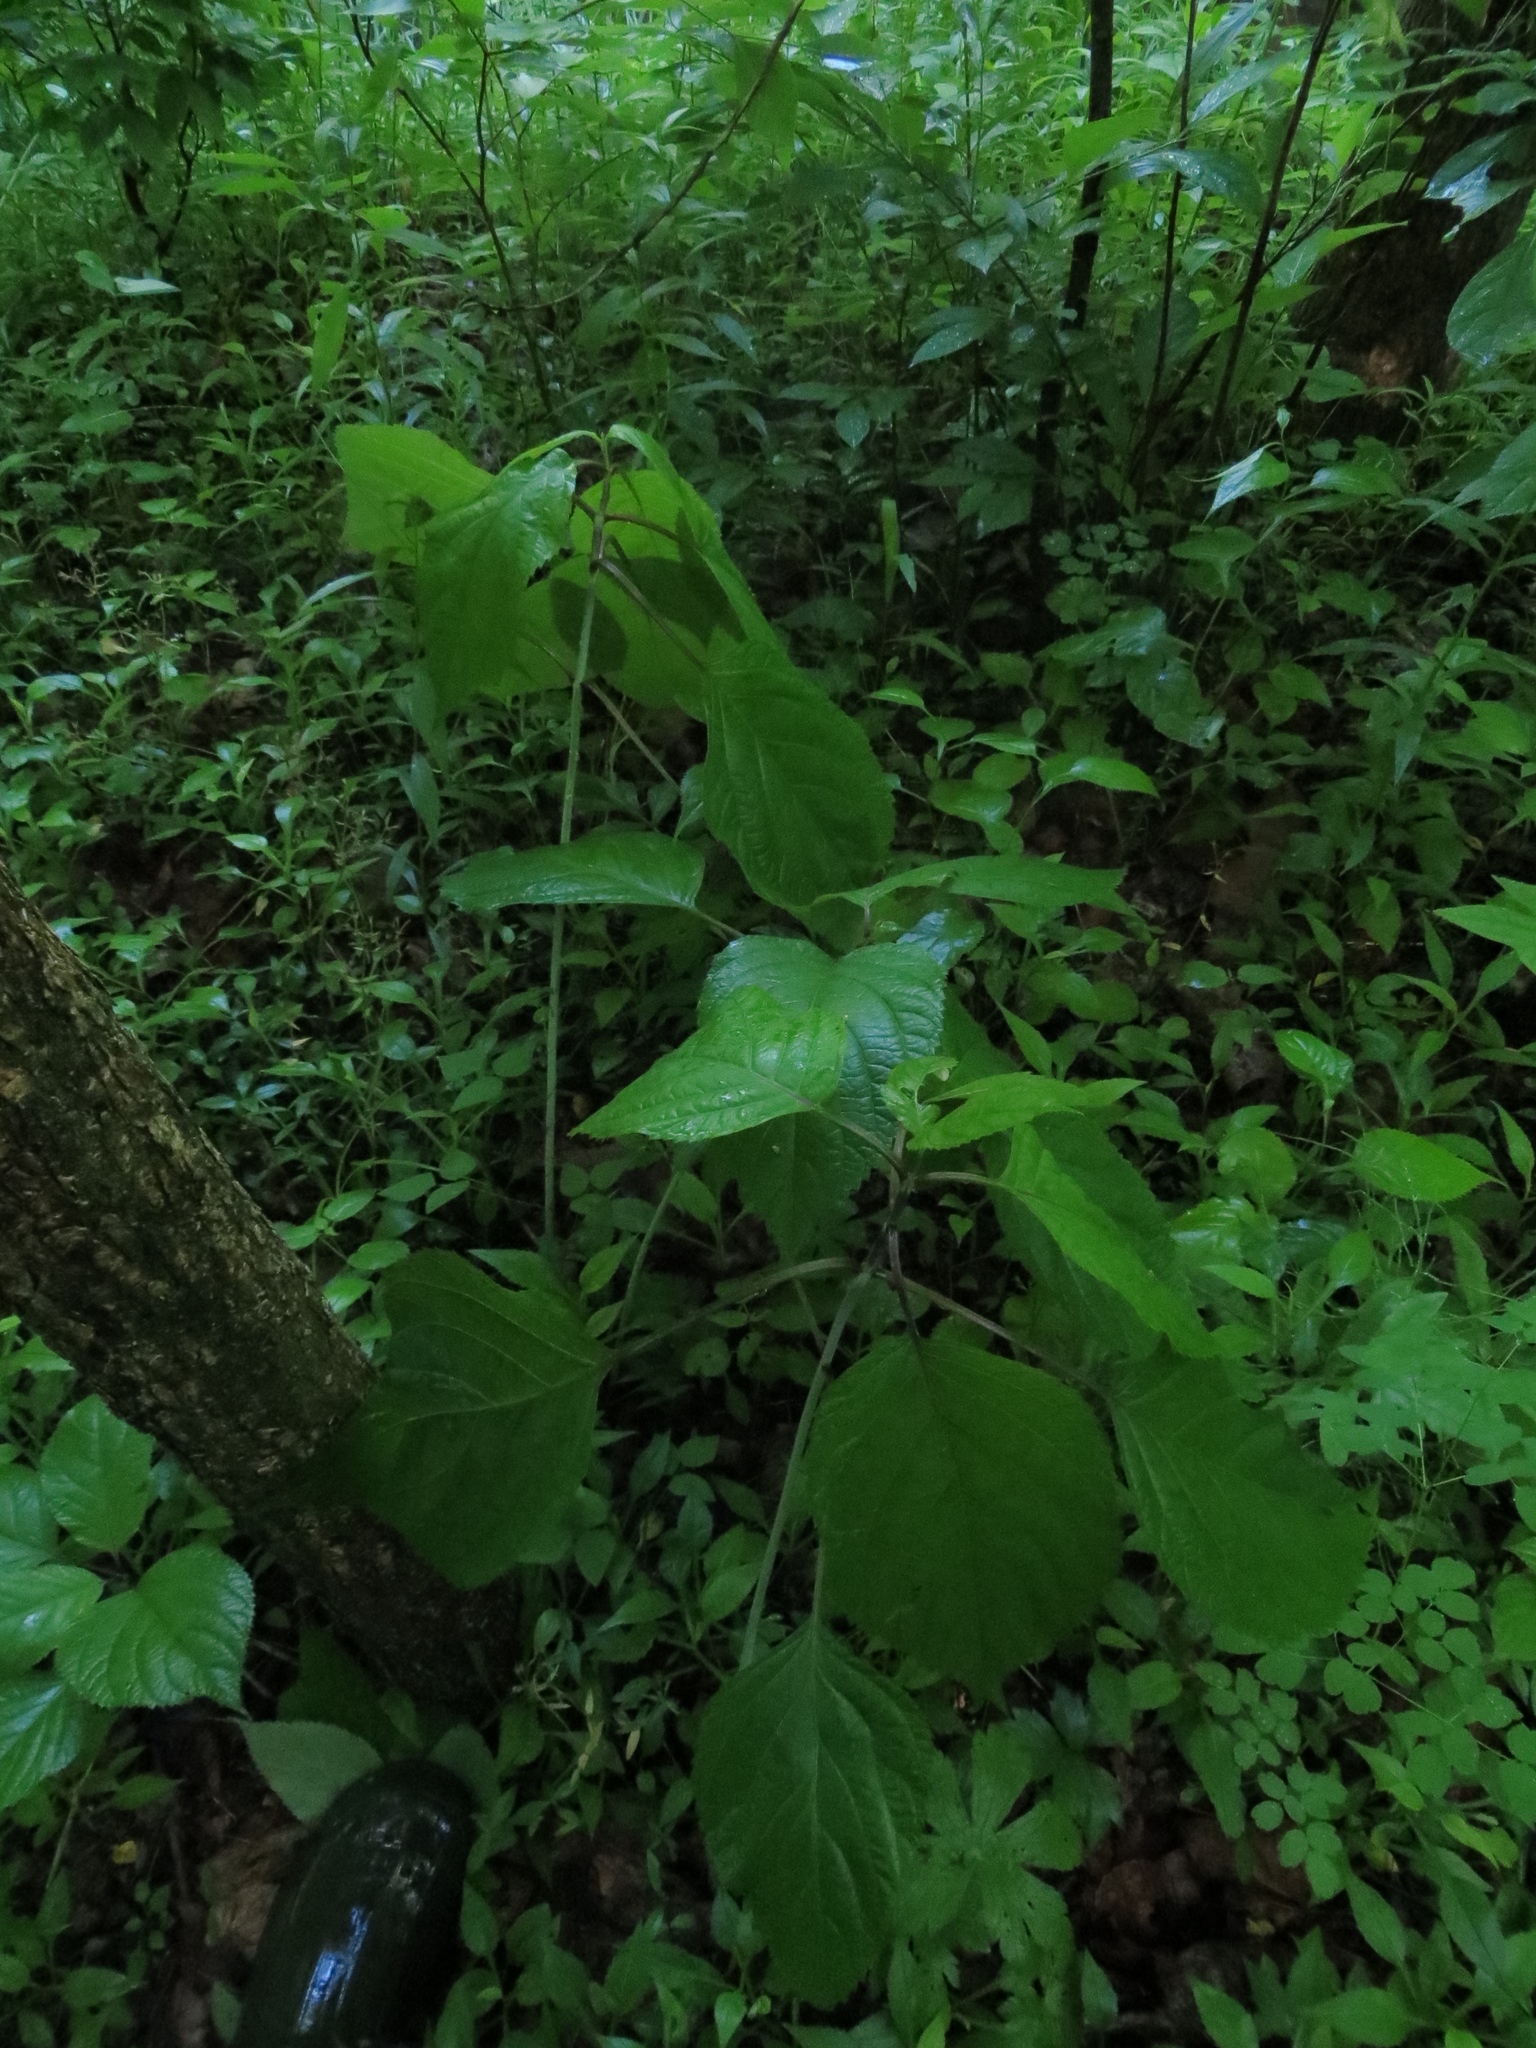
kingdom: Plantae
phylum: Tracheophyta
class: Magnoliopsida
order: Lamiales
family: Lamiaceae
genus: Collinsonia
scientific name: Collinsonia canadensis
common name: Northern horsebalm
